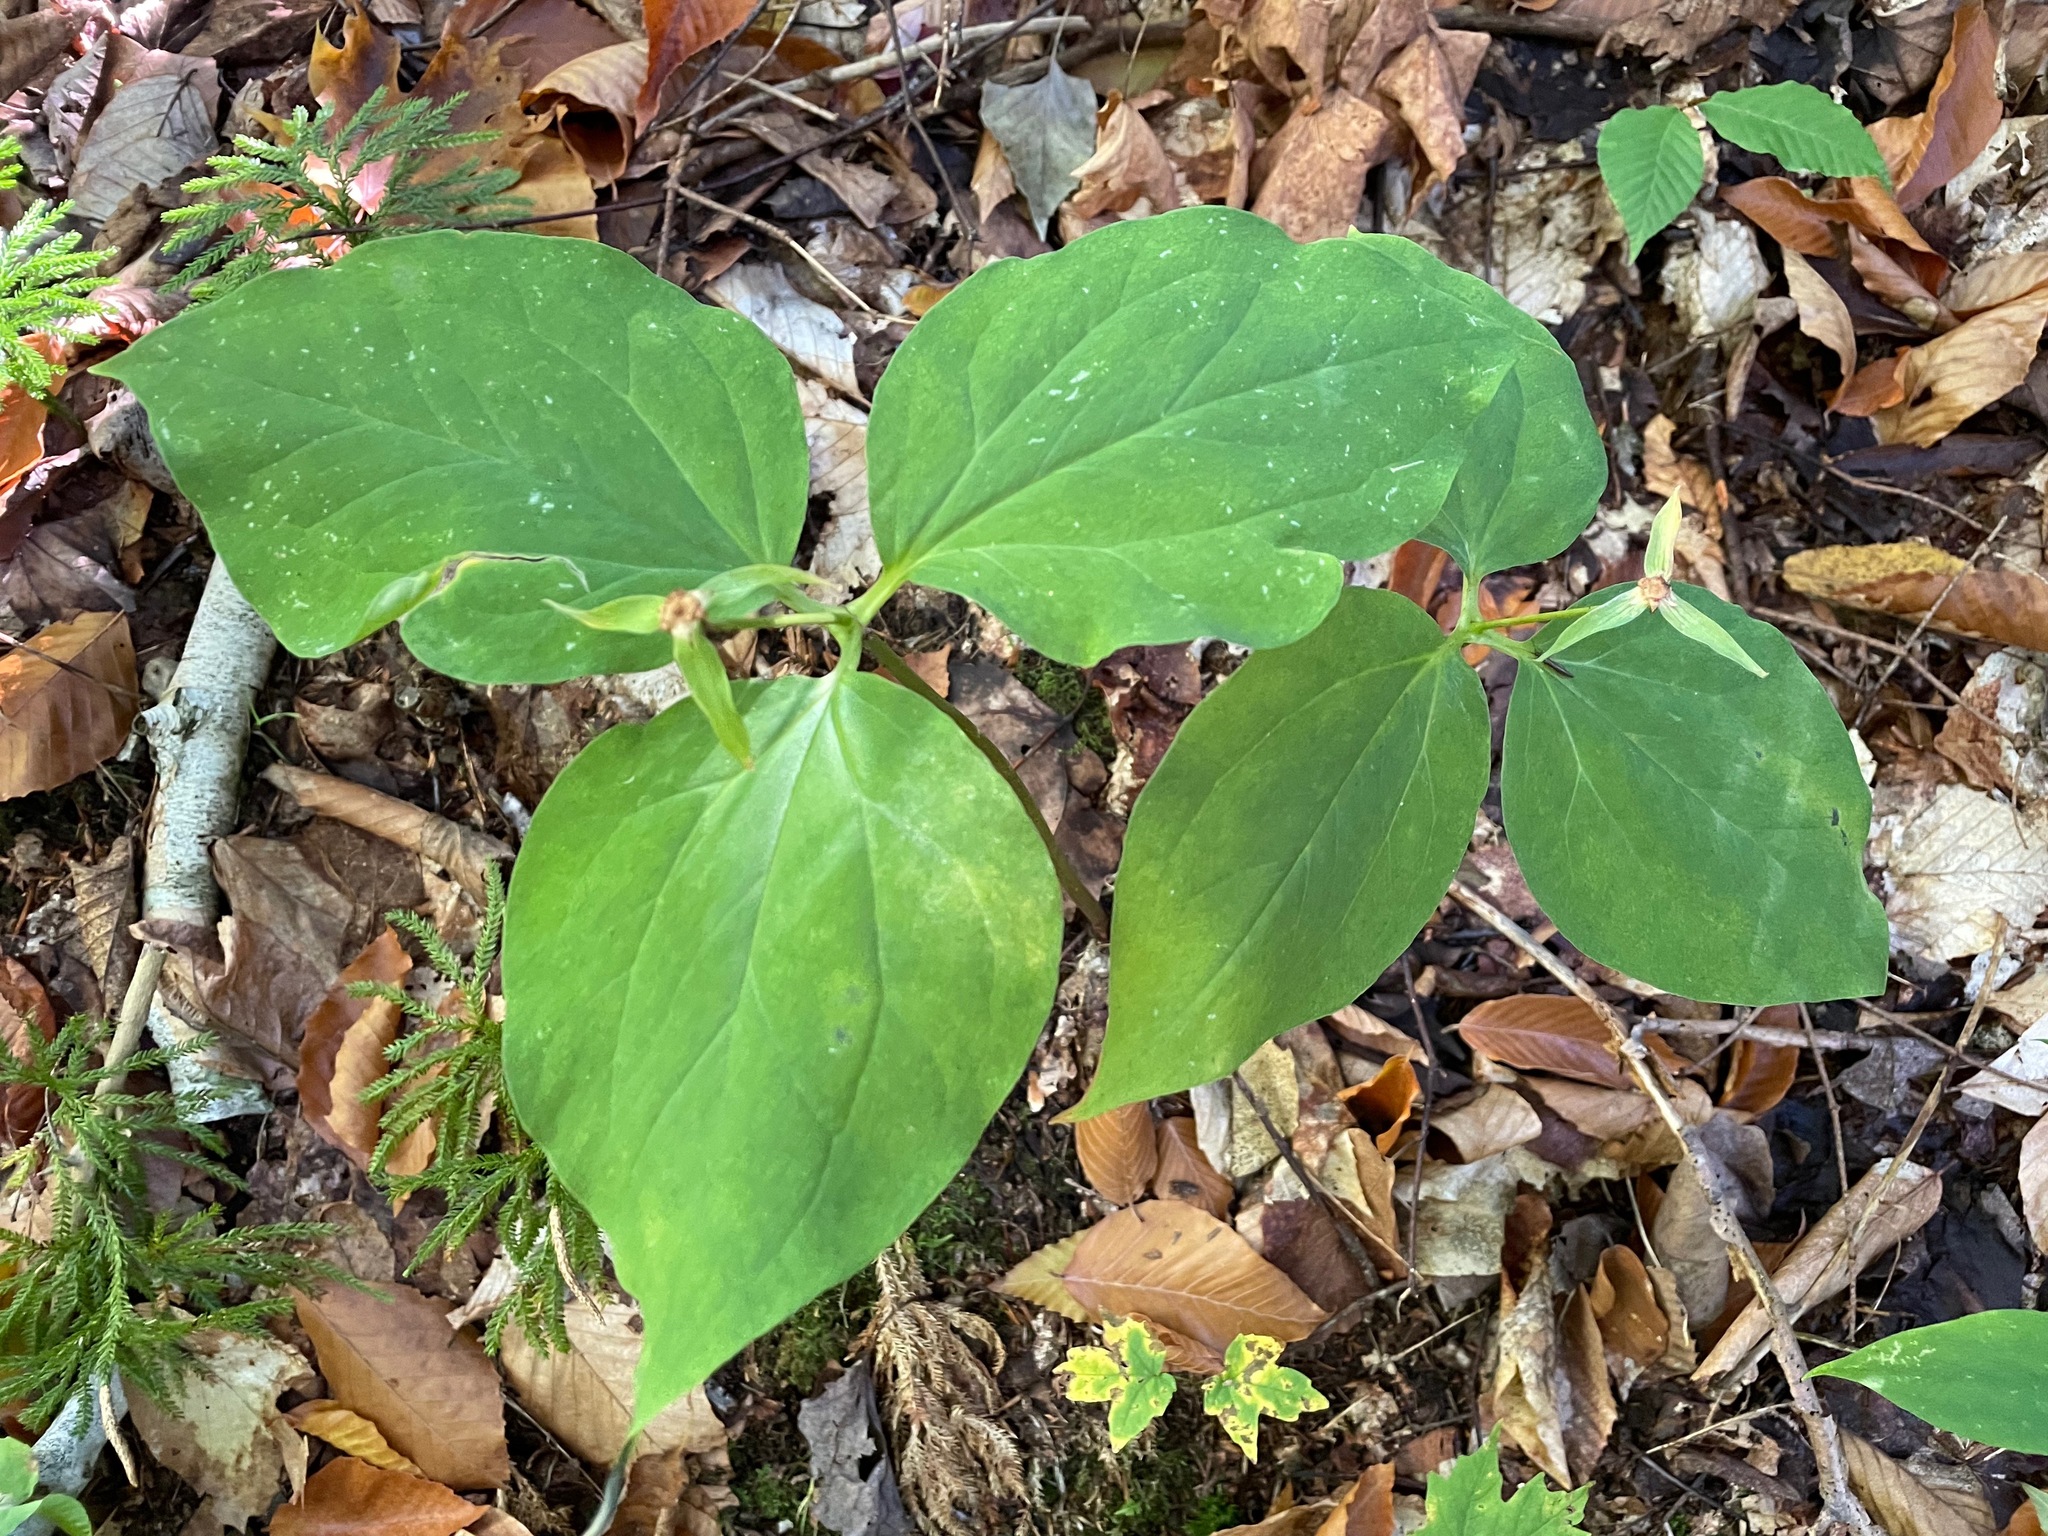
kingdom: Plantae
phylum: Tracheophyta
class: Liliopsida
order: Liliales
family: Melanthiaceae
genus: Trillium
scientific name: Trillium undulatum
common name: Paint trillium
